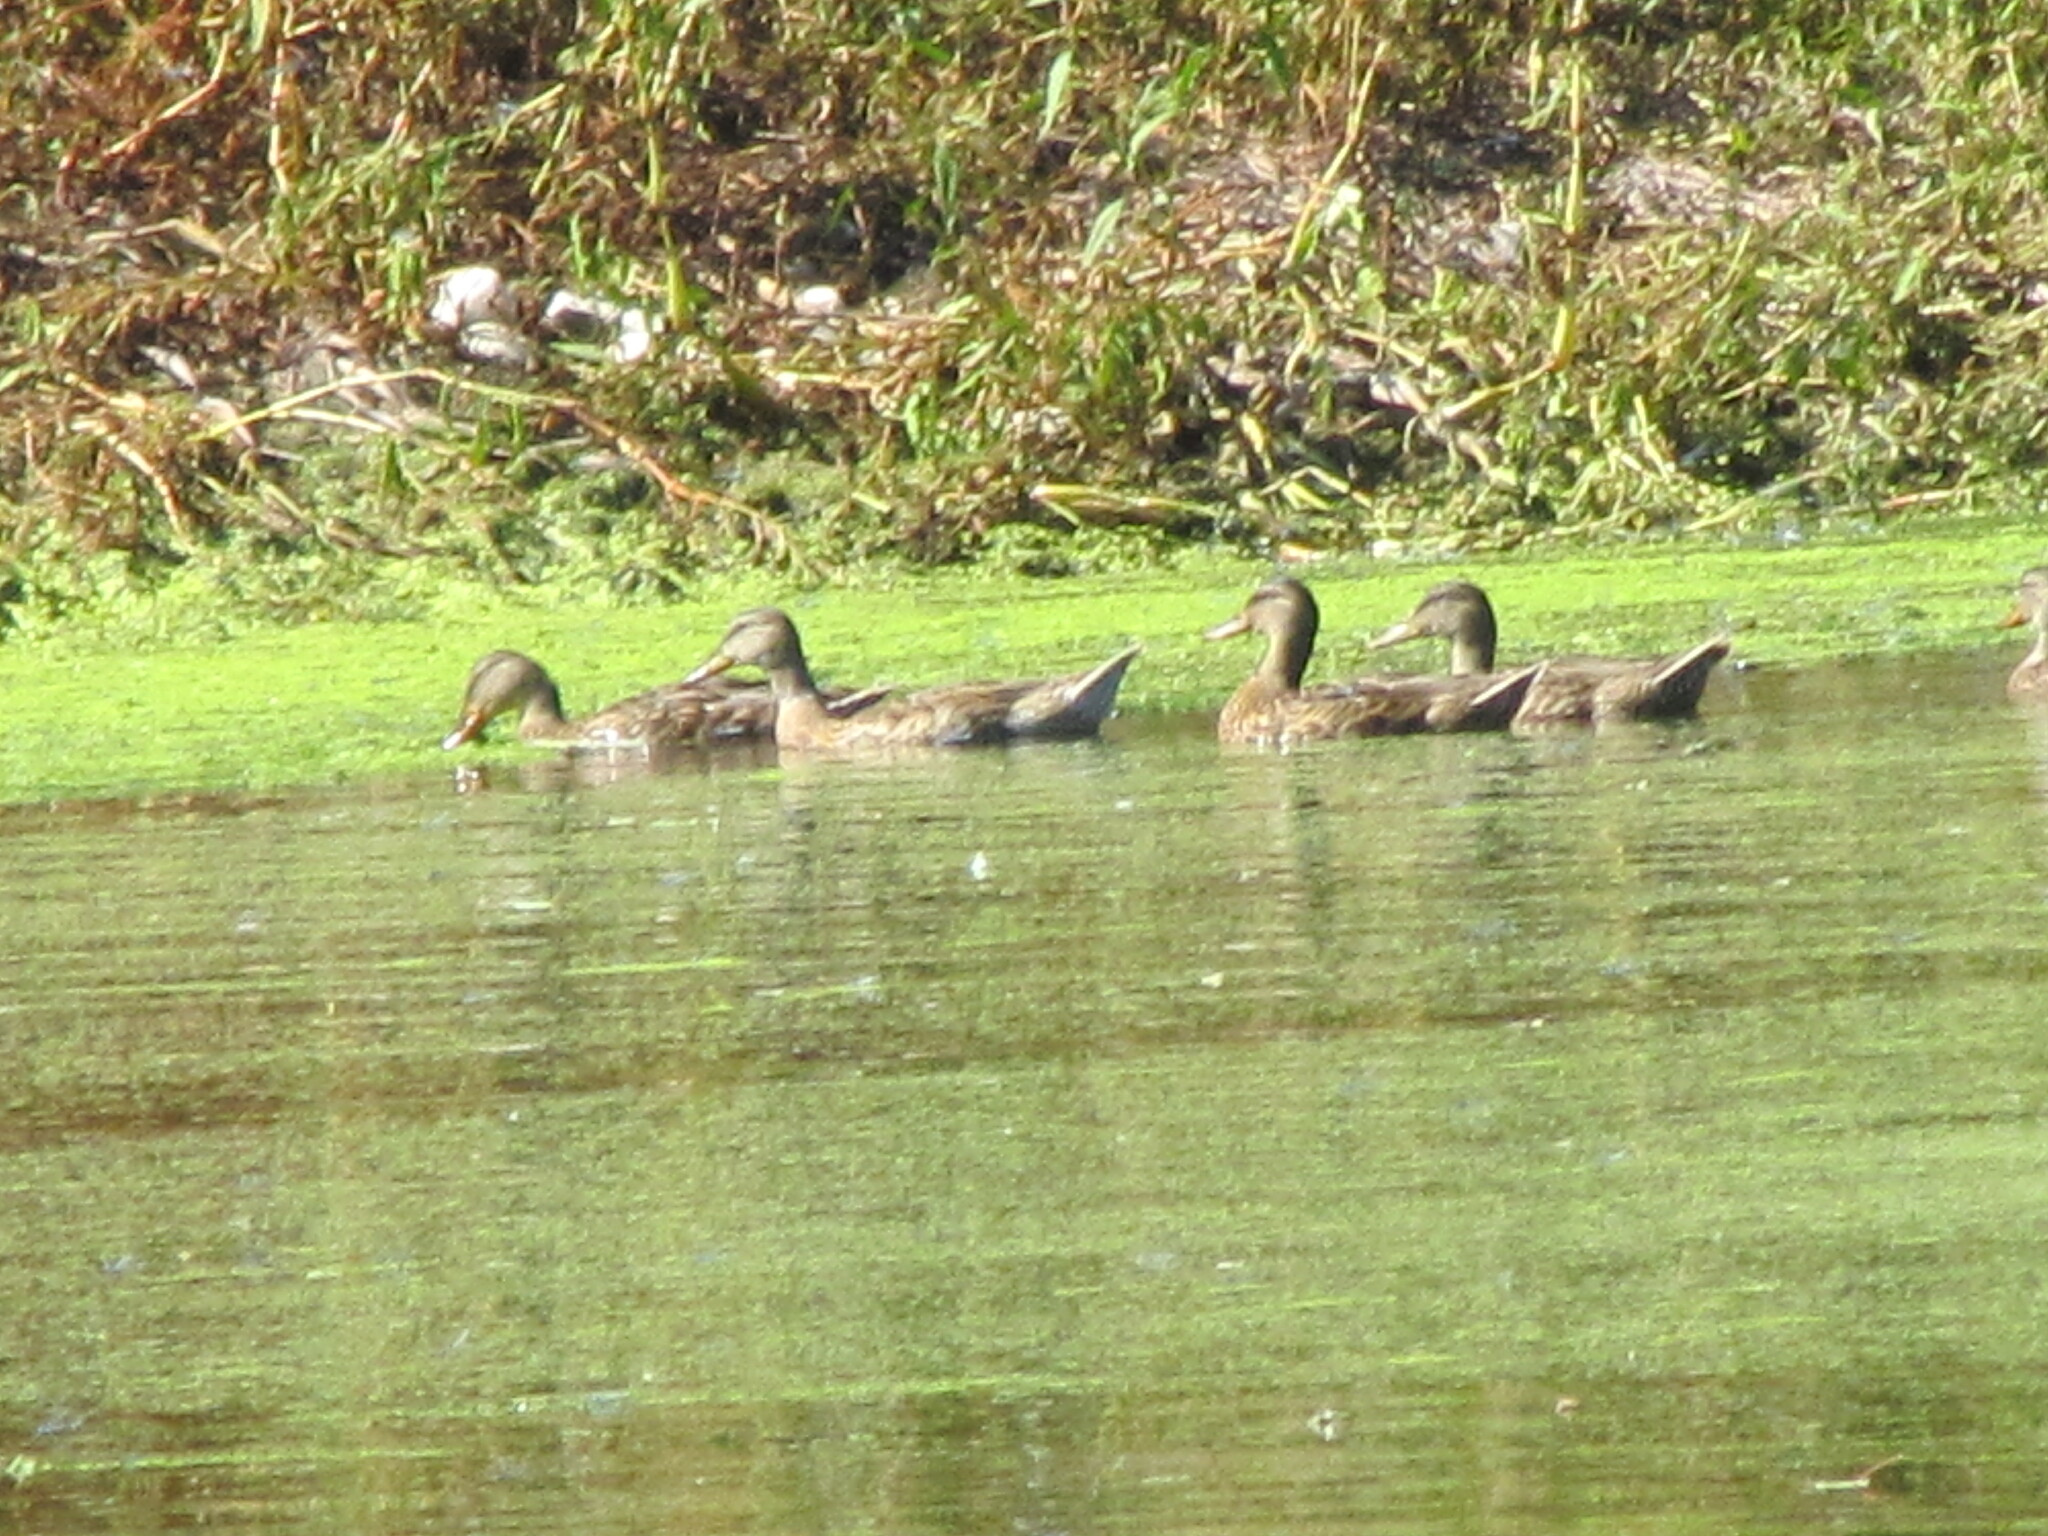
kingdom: Animalia
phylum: Chordata
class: Aves
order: Anseriformes
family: Anatidae
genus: Anas
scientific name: Anas platyrhynchos
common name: Mallard
